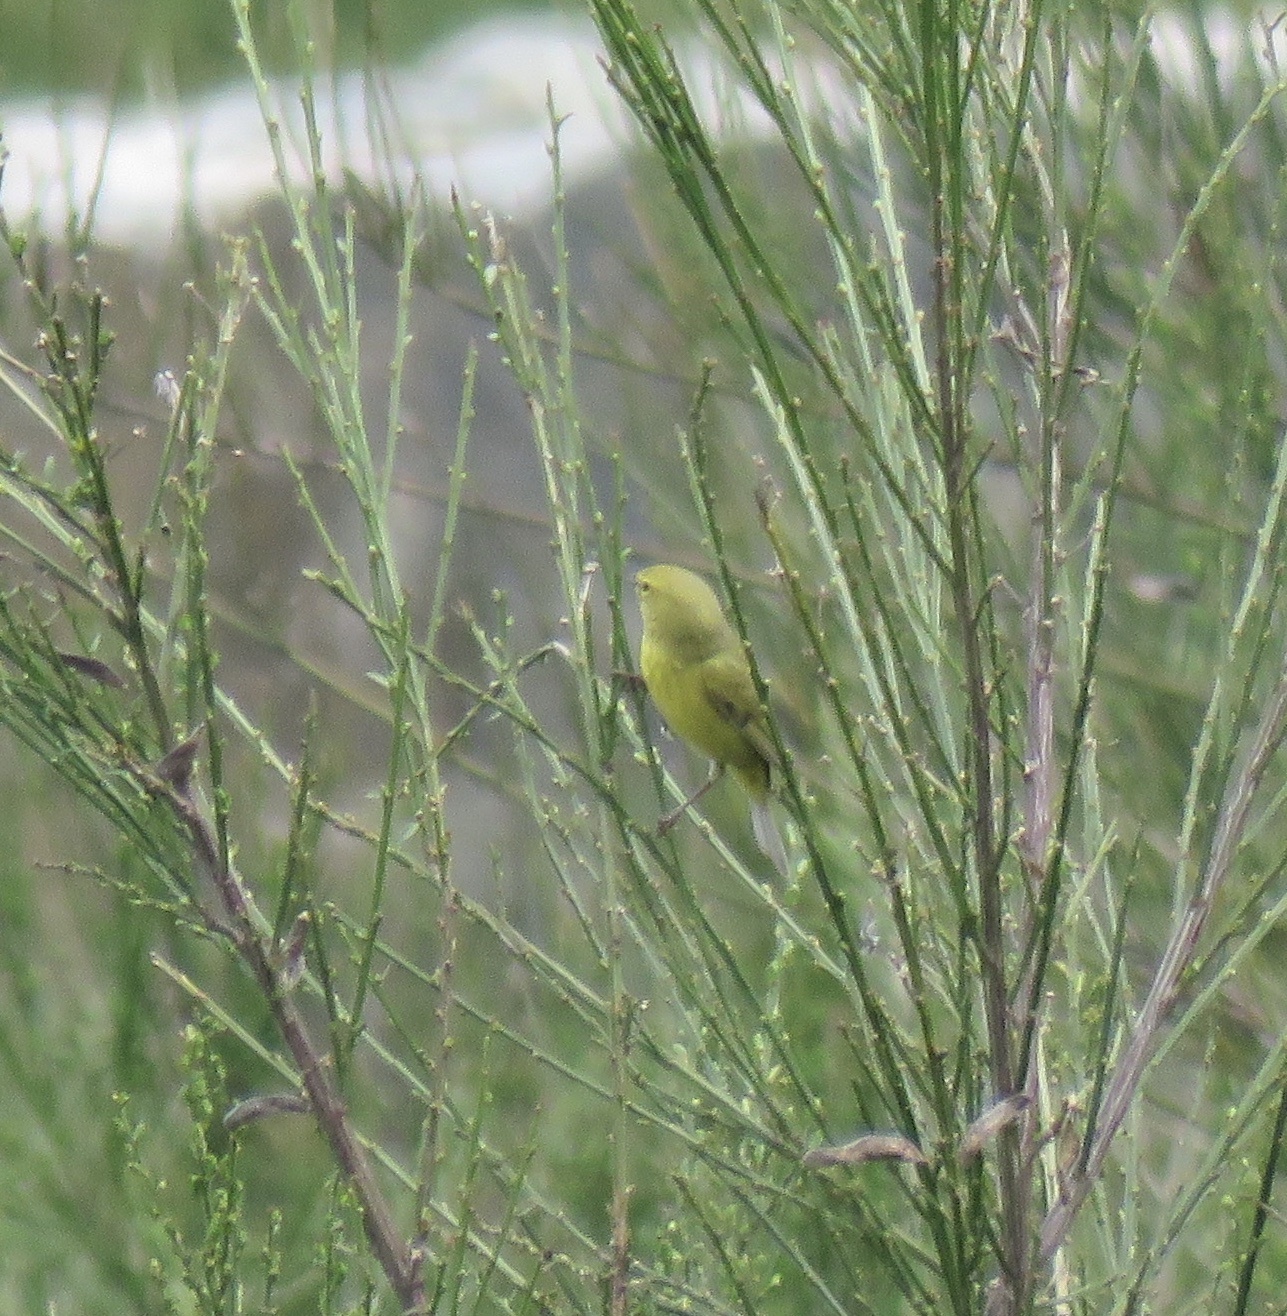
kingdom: Animalia
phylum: Chordata
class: Aves
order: Passeriformes
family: Parulidae
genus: Leiothlypis
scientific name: Leiothlypis celata
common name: Orange-crowned warbler
